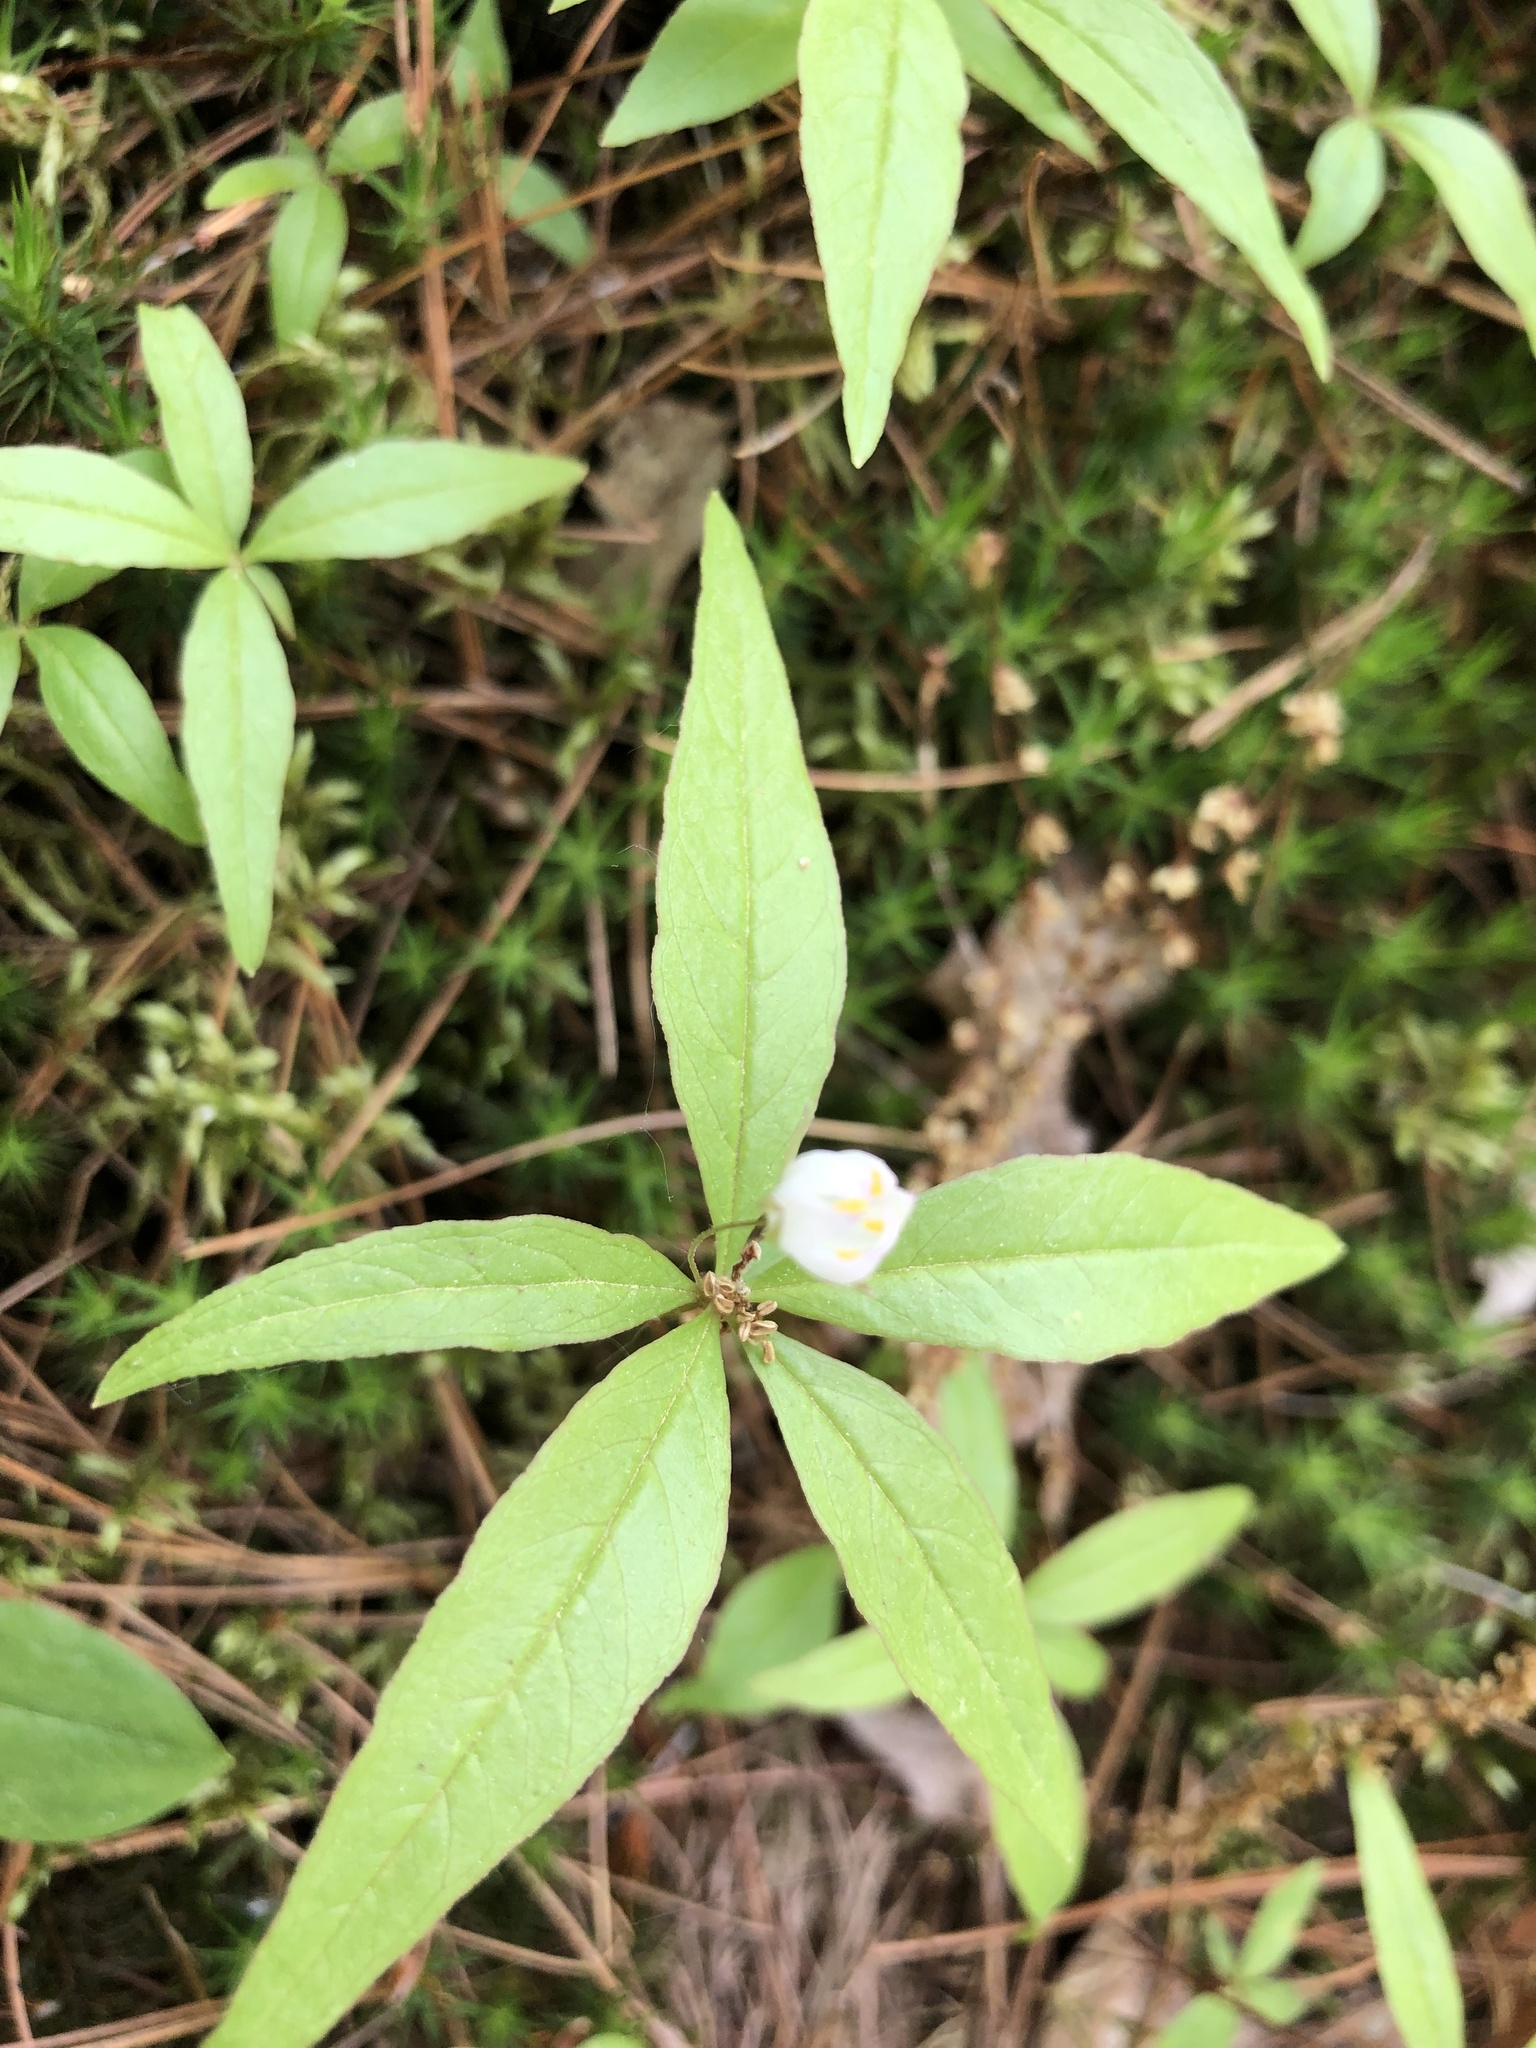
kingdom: Plantae
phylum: Tracheophyta
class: Magnoliopsida
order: Ericales
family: Primulaceae
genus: Lysimachia
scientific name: Lysimachia borealis
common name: American starflower
